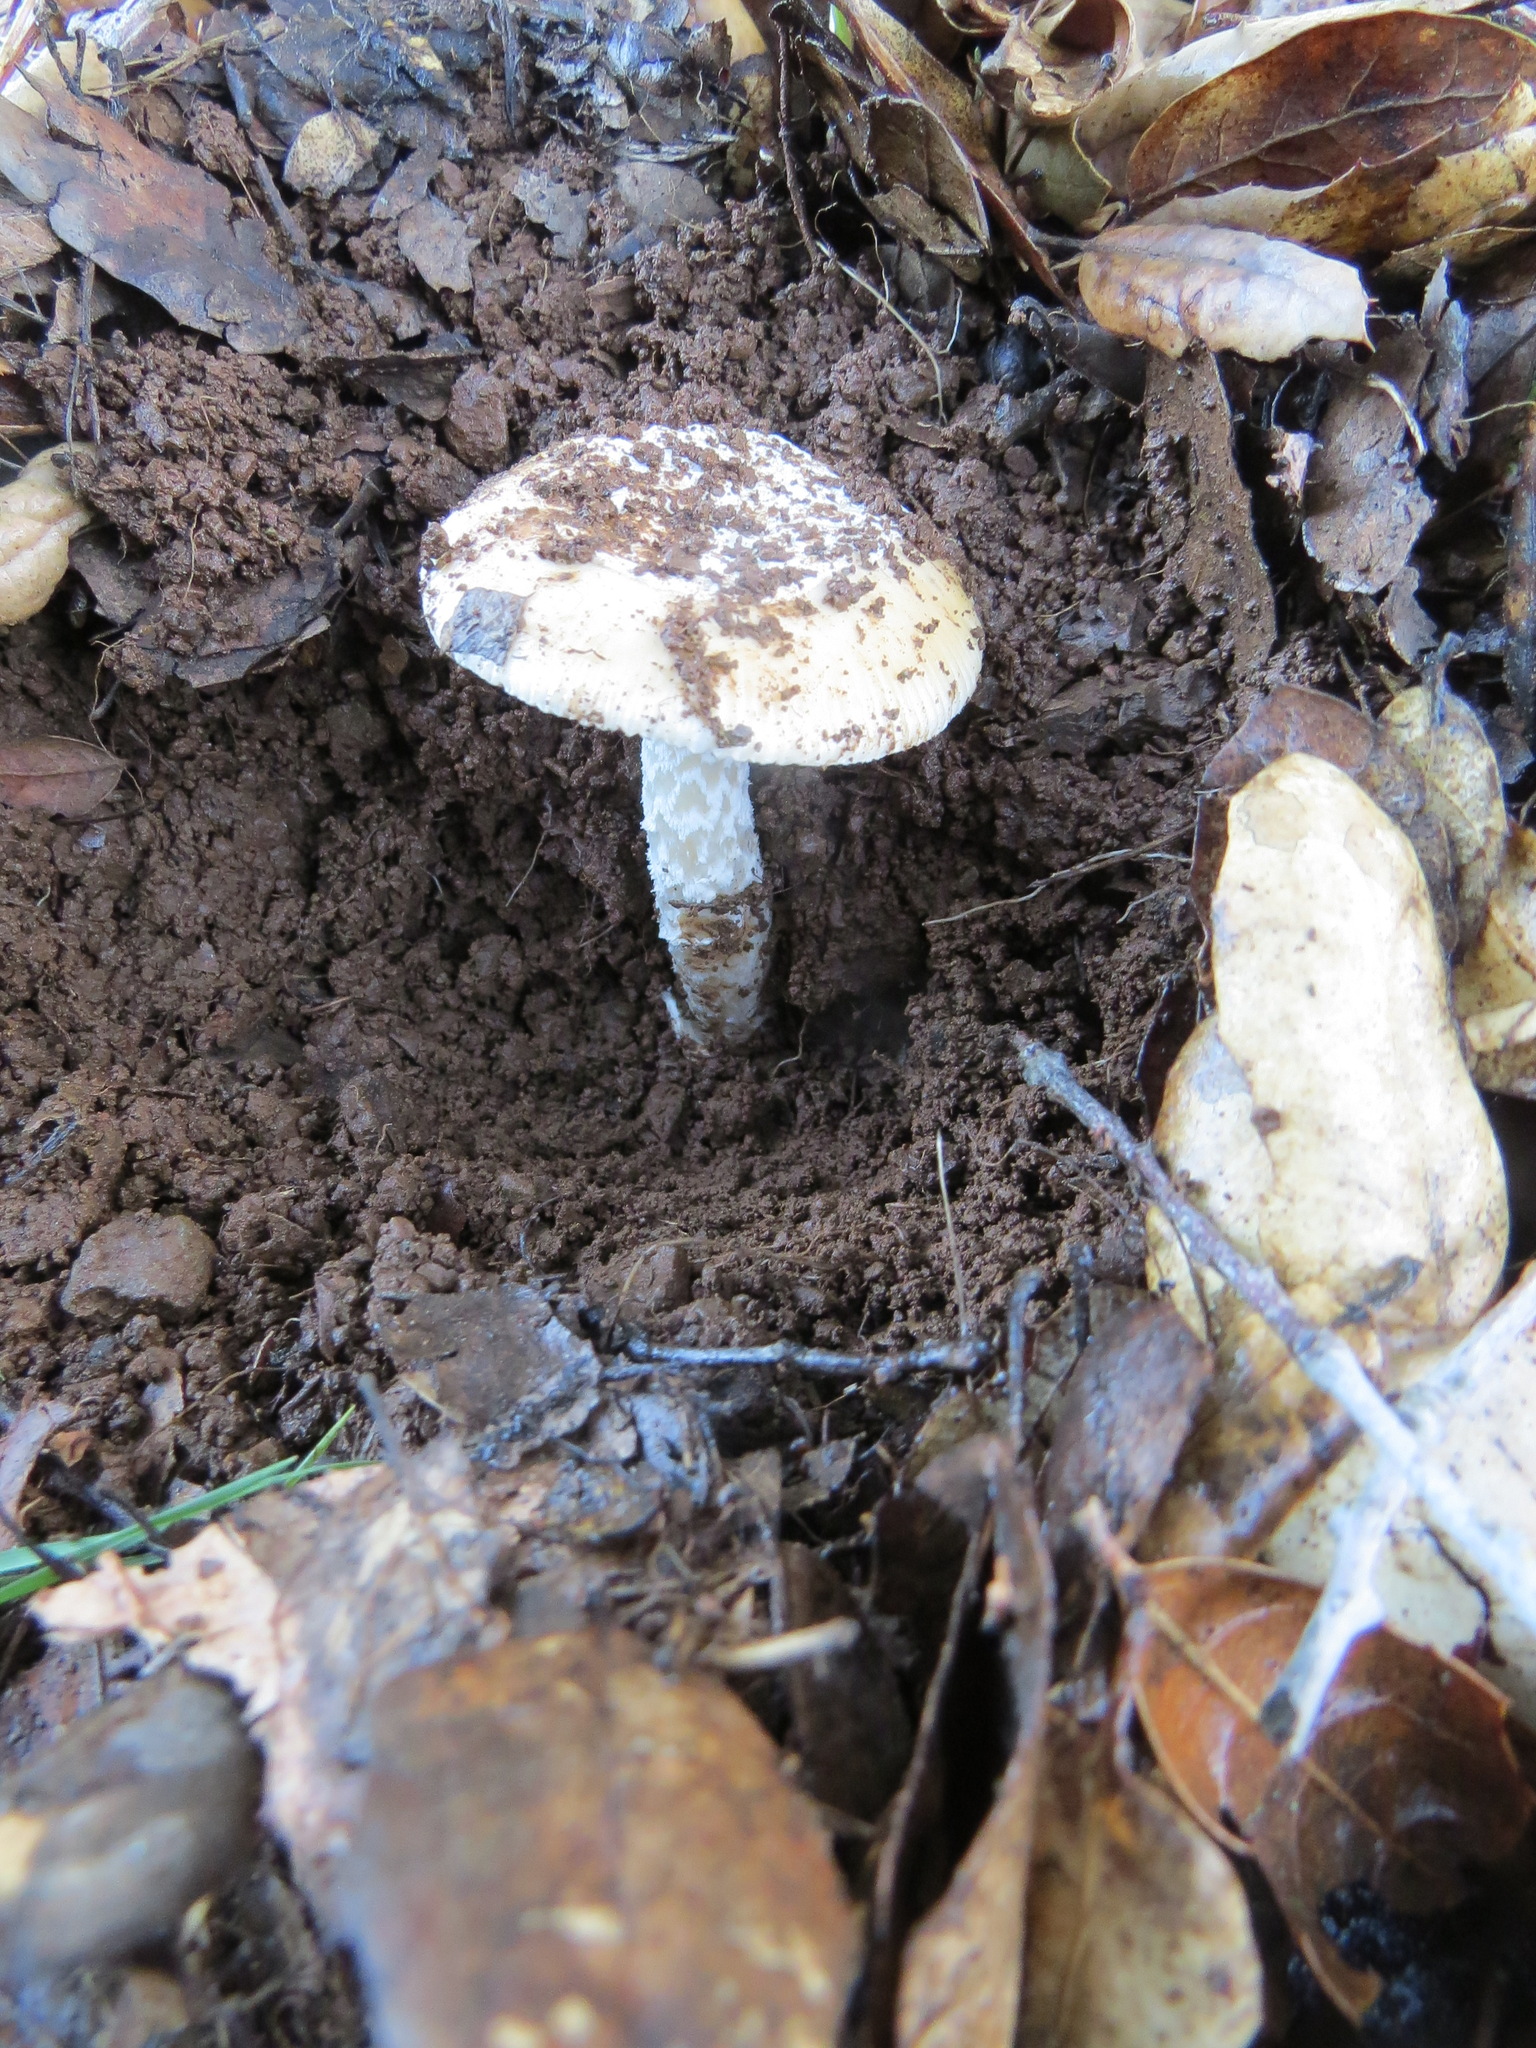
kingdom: Fungi
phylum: Basidiomycota
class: Agaricomycetes
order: Agaricales
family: Amanitaceae
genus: Amanita
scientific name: Amanita velosa
